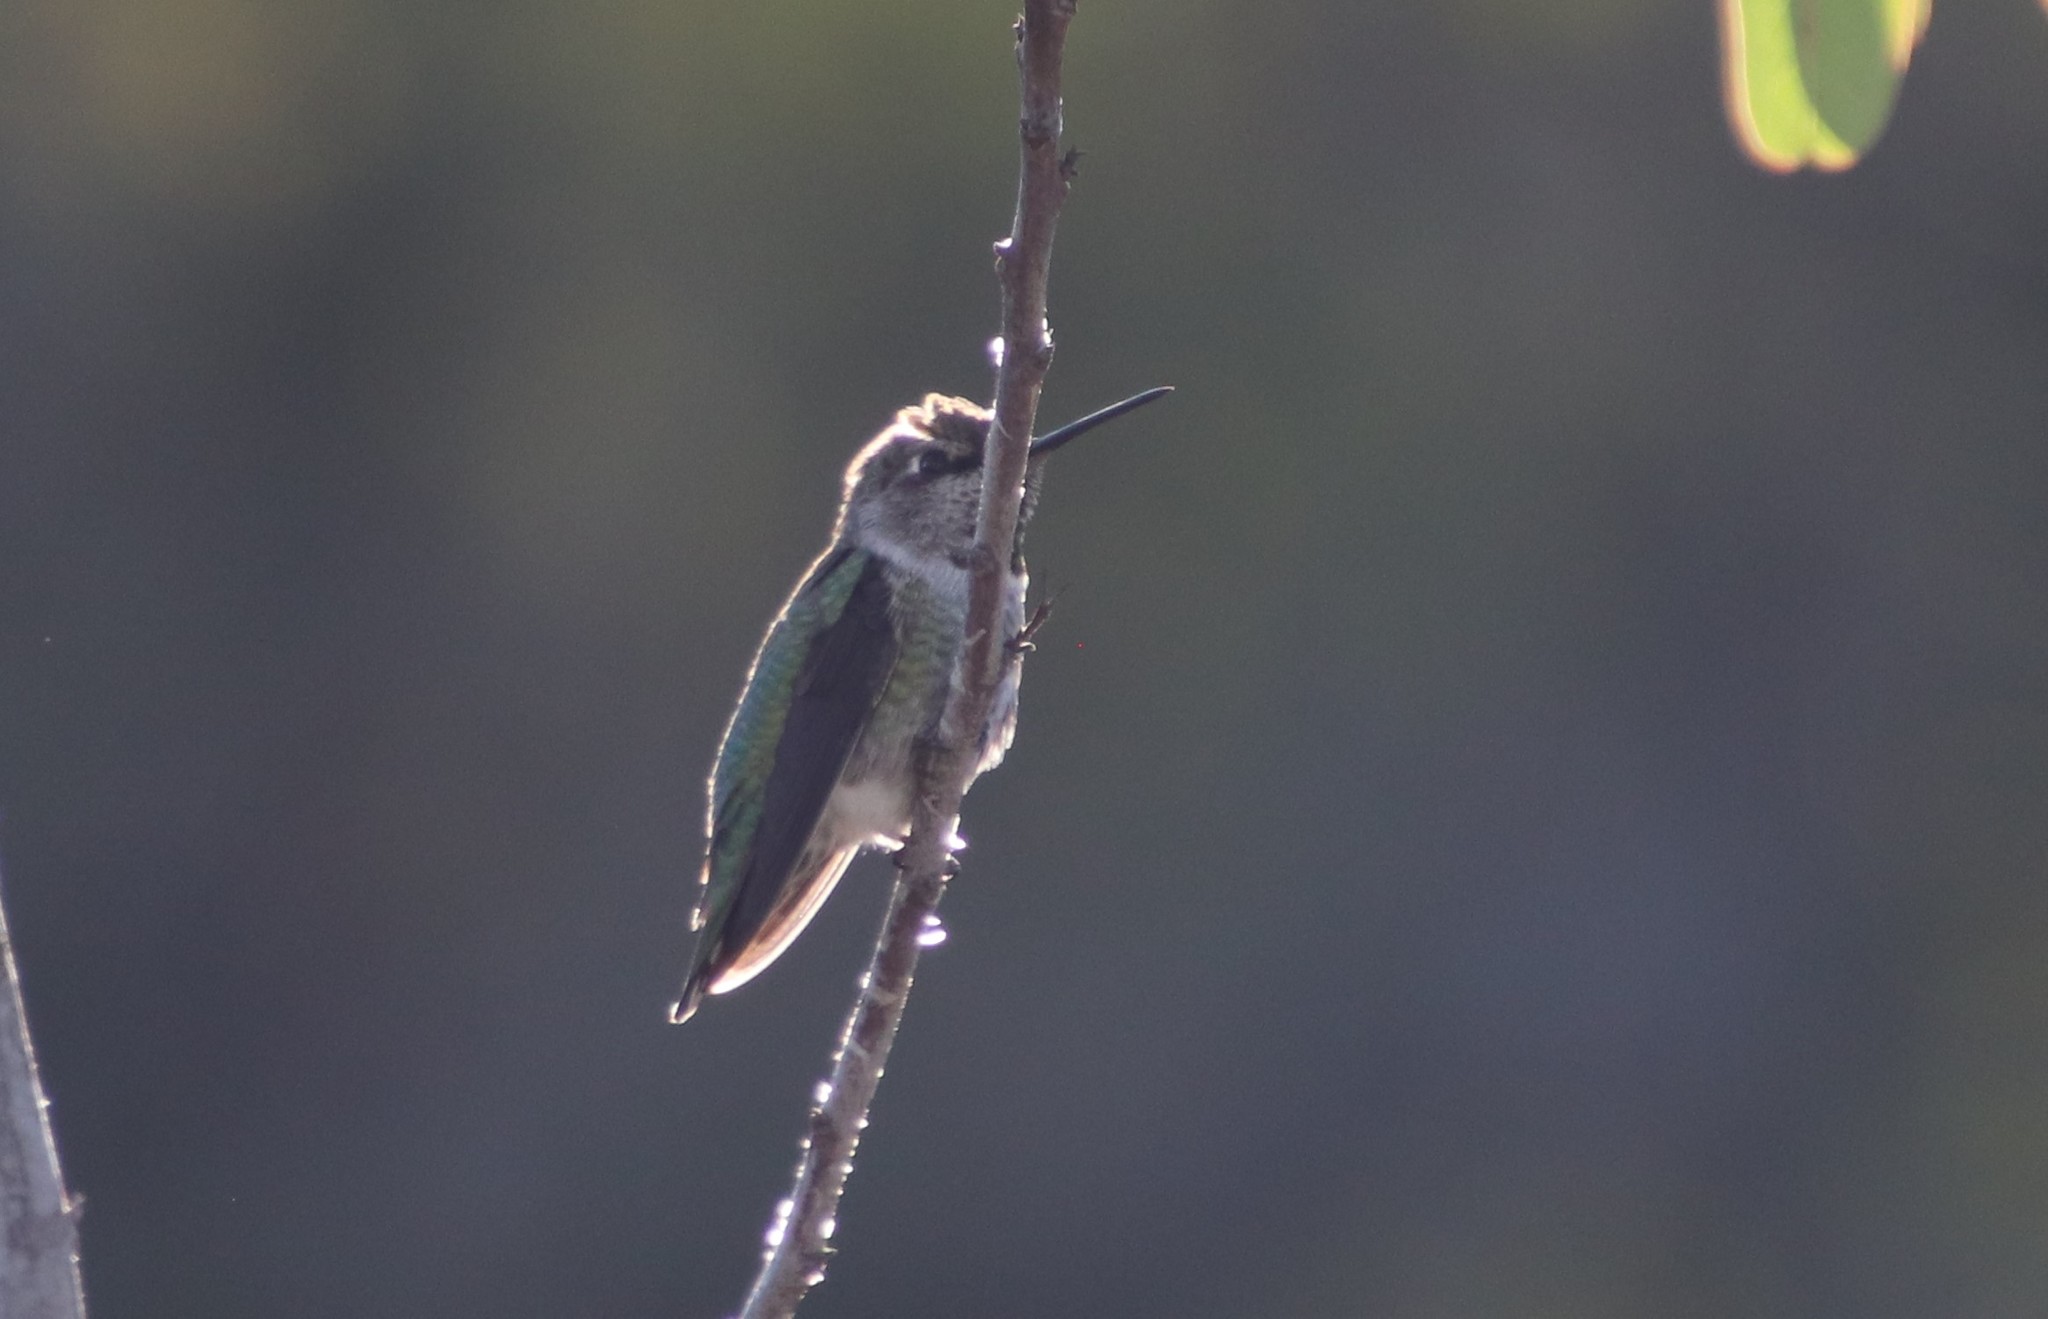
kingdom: Animalia
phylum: Chordata
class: Aves
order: Apodiformes
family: Trochilidae
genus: Calypte
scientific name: Calypte anna
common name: Anna's hummingbird
